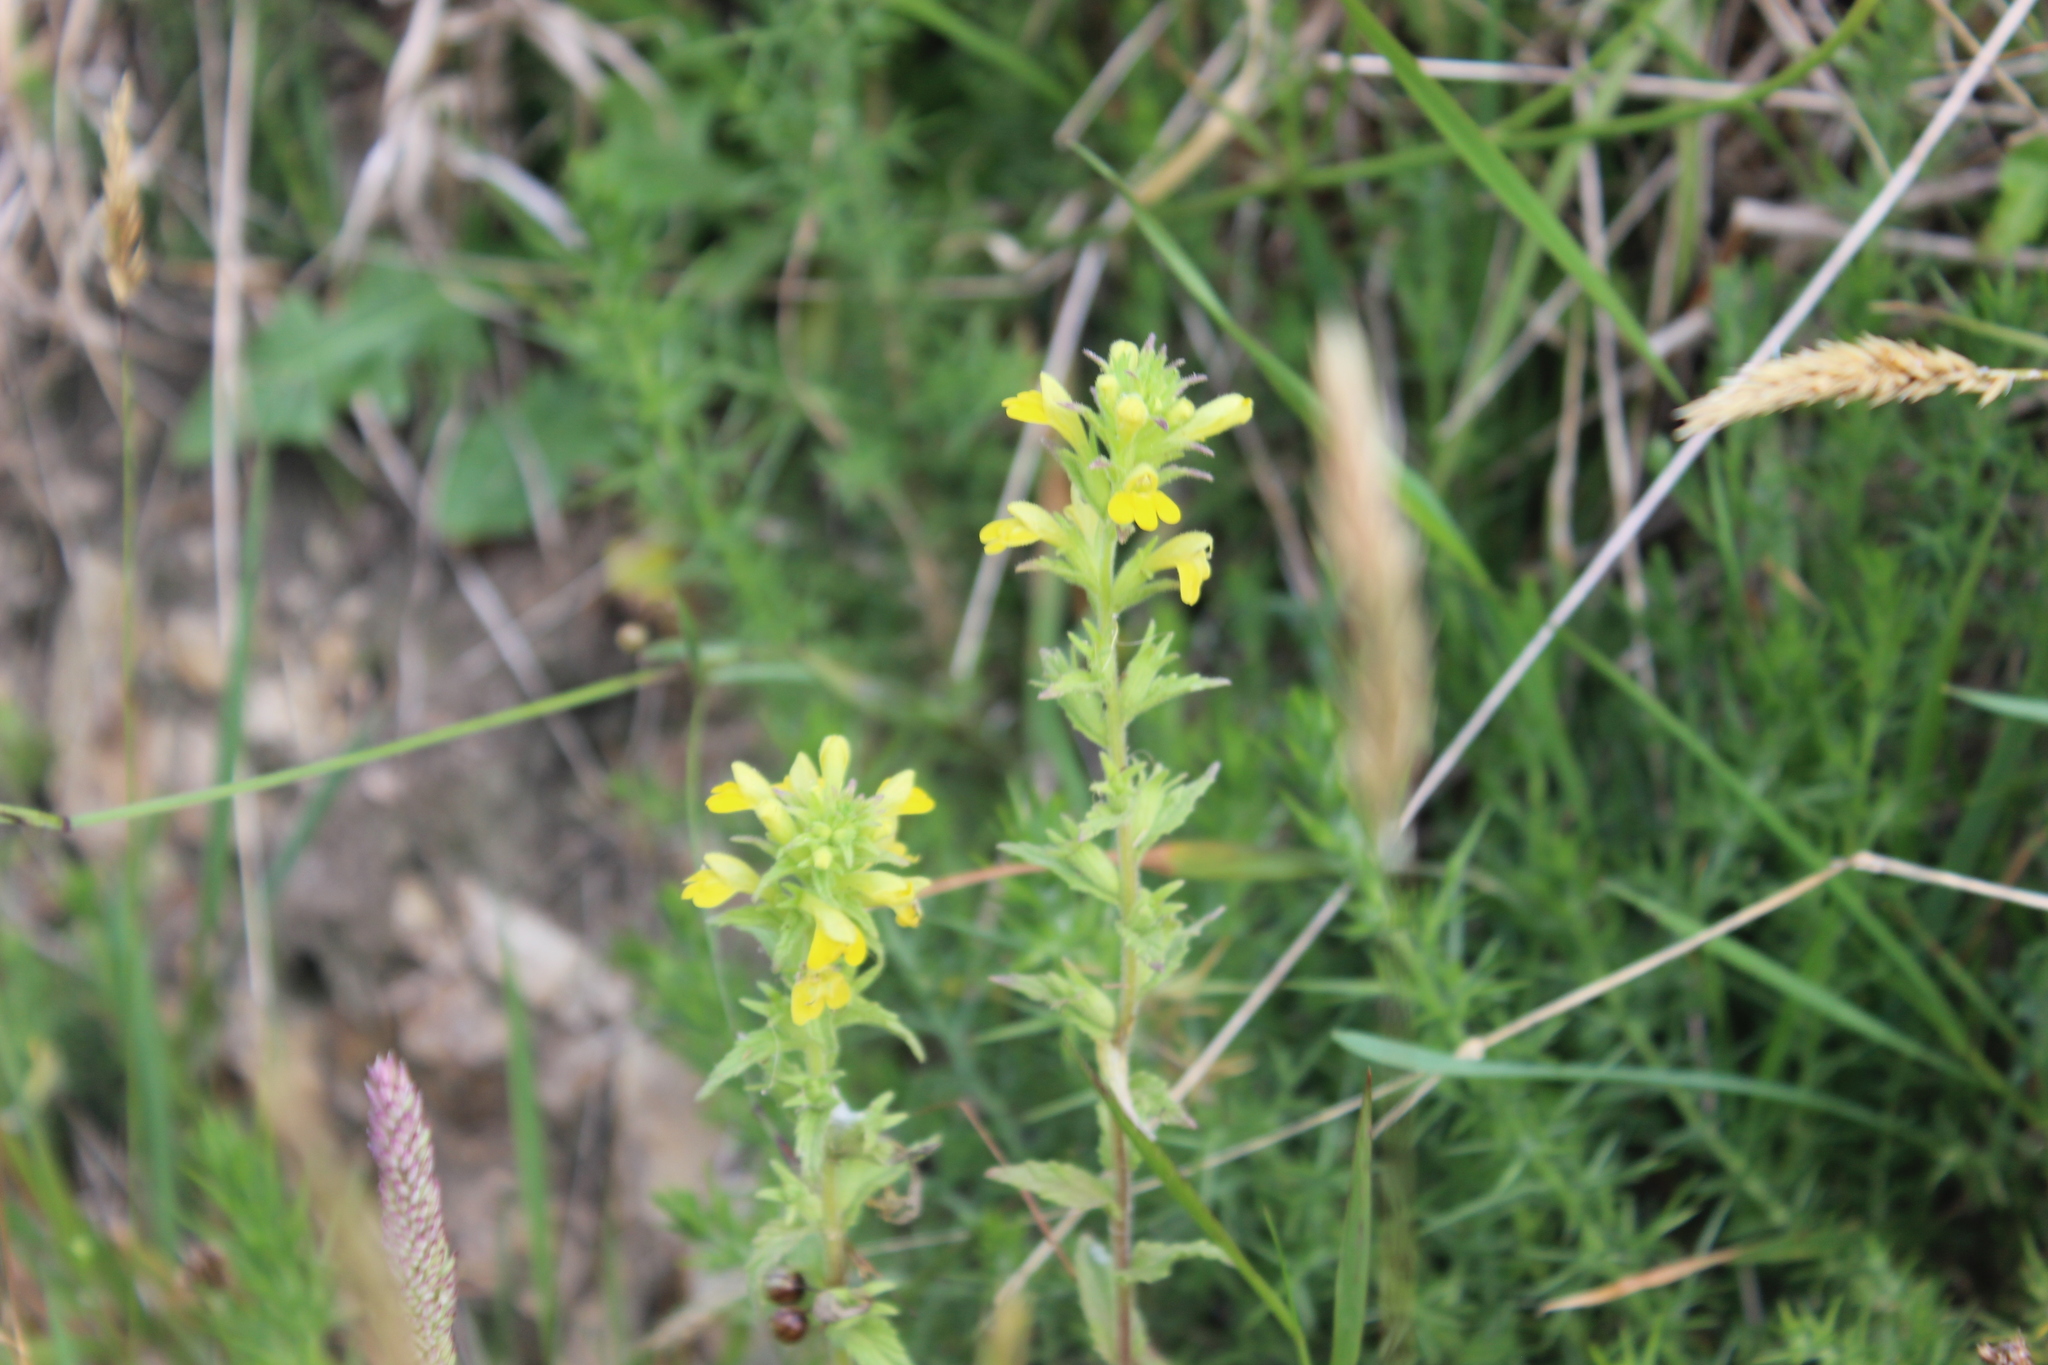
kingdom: Plantae
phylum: Tracheophyta
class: Magnoliopsida
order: Lamiales
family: Orobanchaceae
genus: Bellardia
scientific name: Bellardia viscosa
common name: Sticky parentucellia
